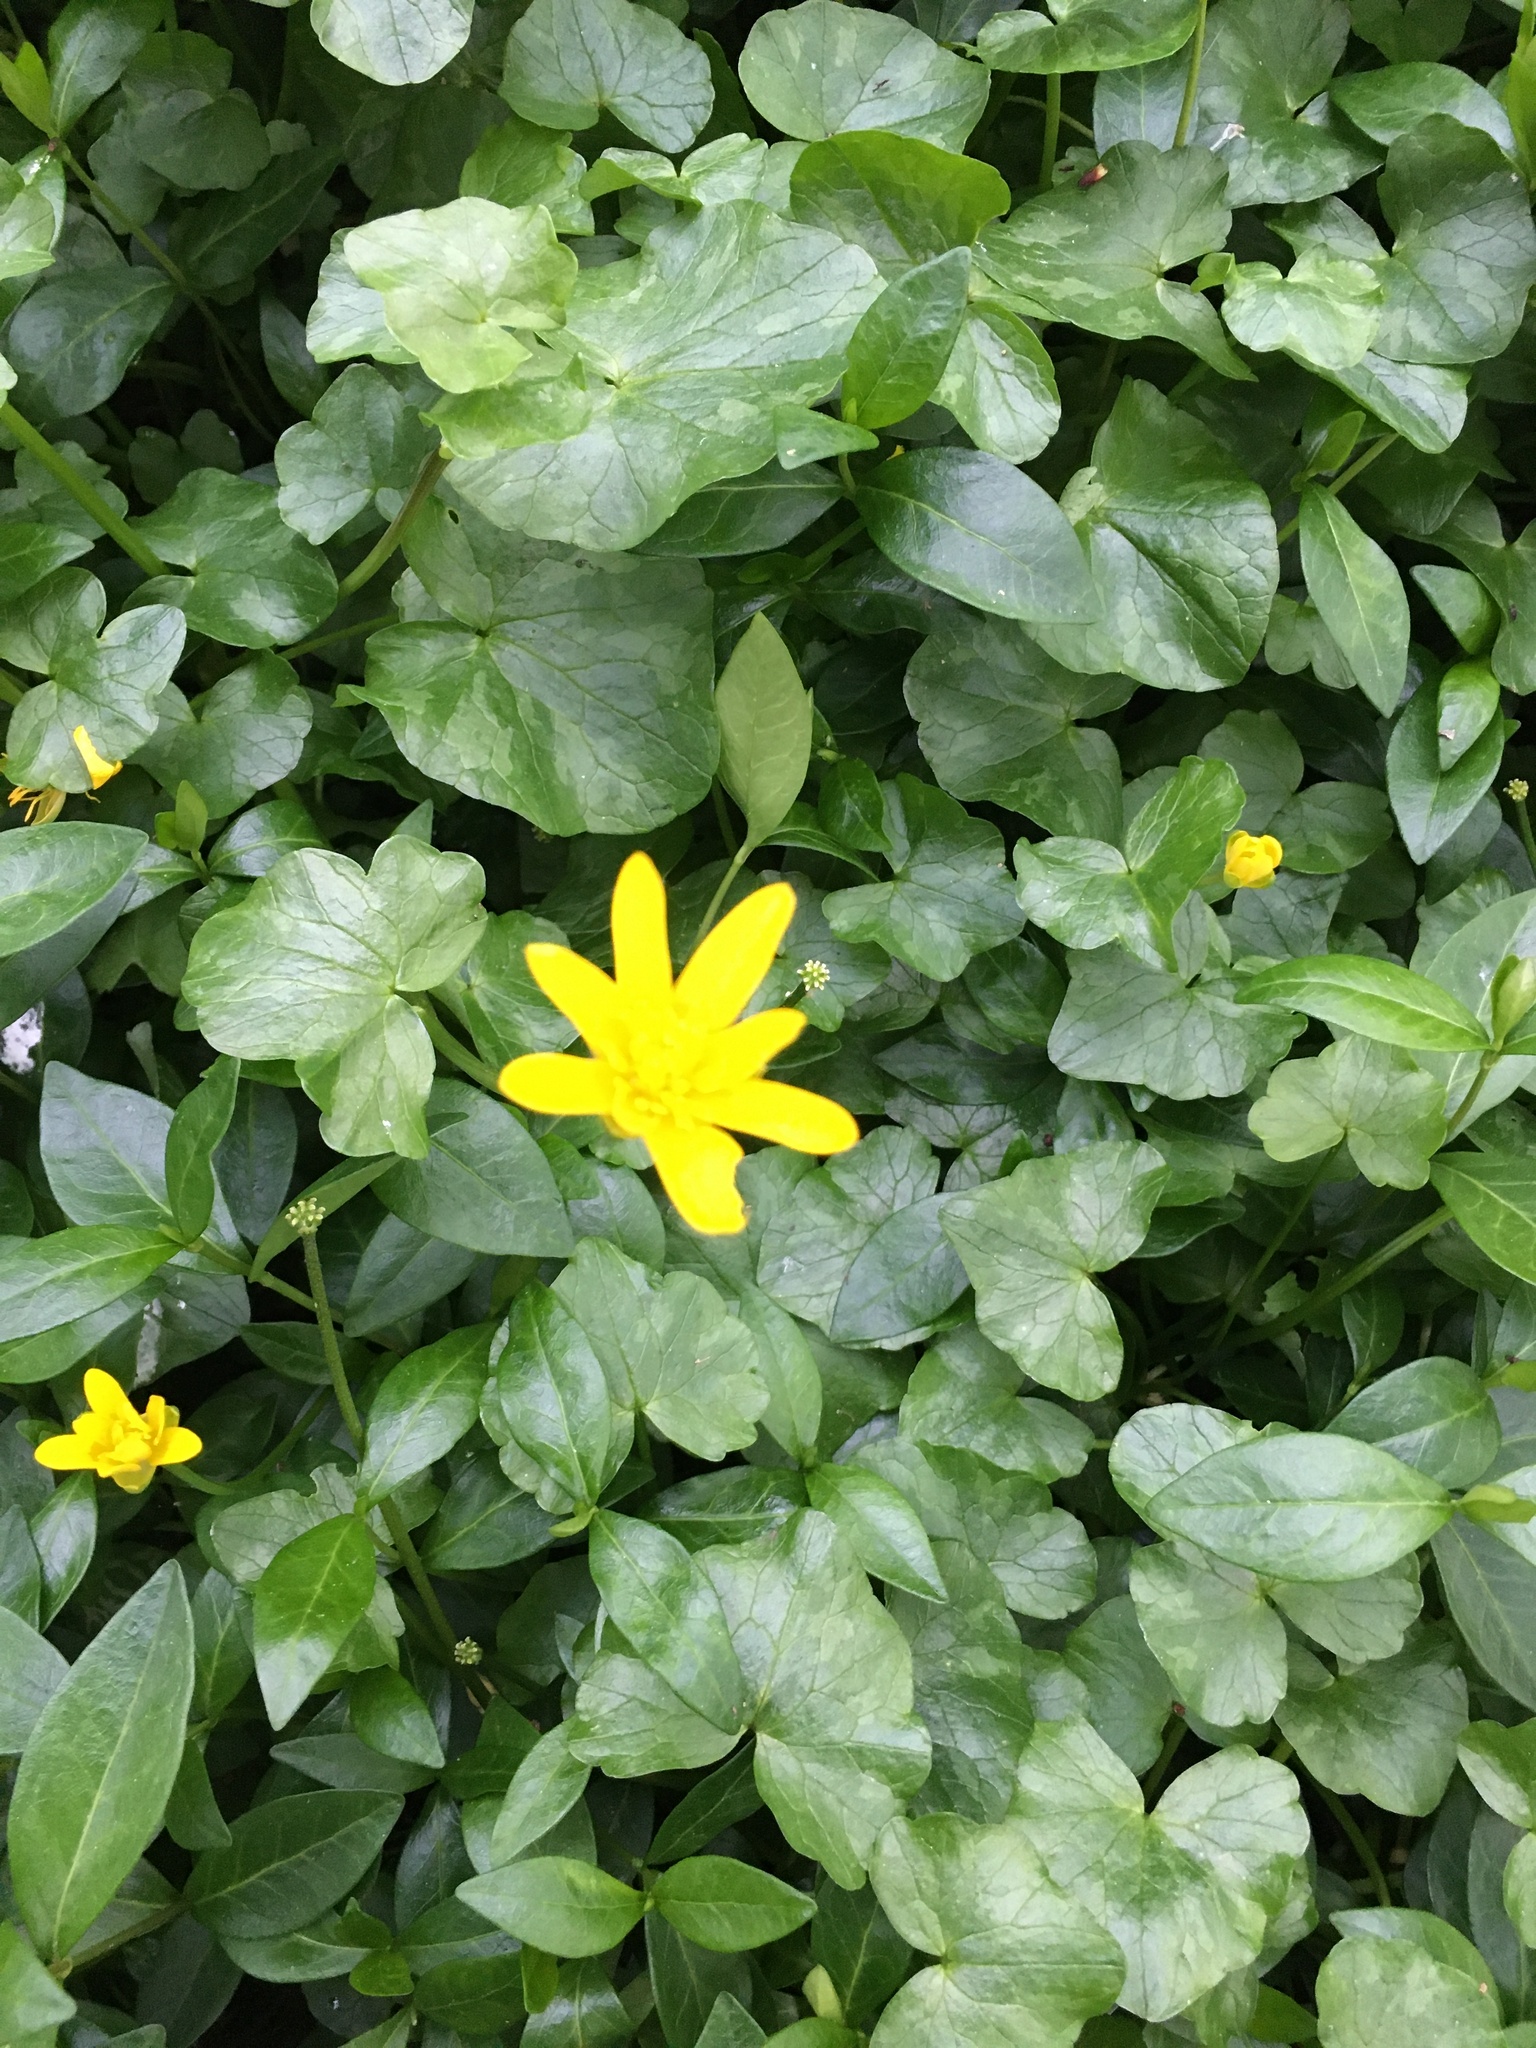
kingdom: Plantae
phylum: Tracheophyta
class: Magnoliopsida
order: Ranunculales
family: Ranunculaceae
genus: Ficaria
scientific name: Ficaria verna
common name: Lesser celandine
